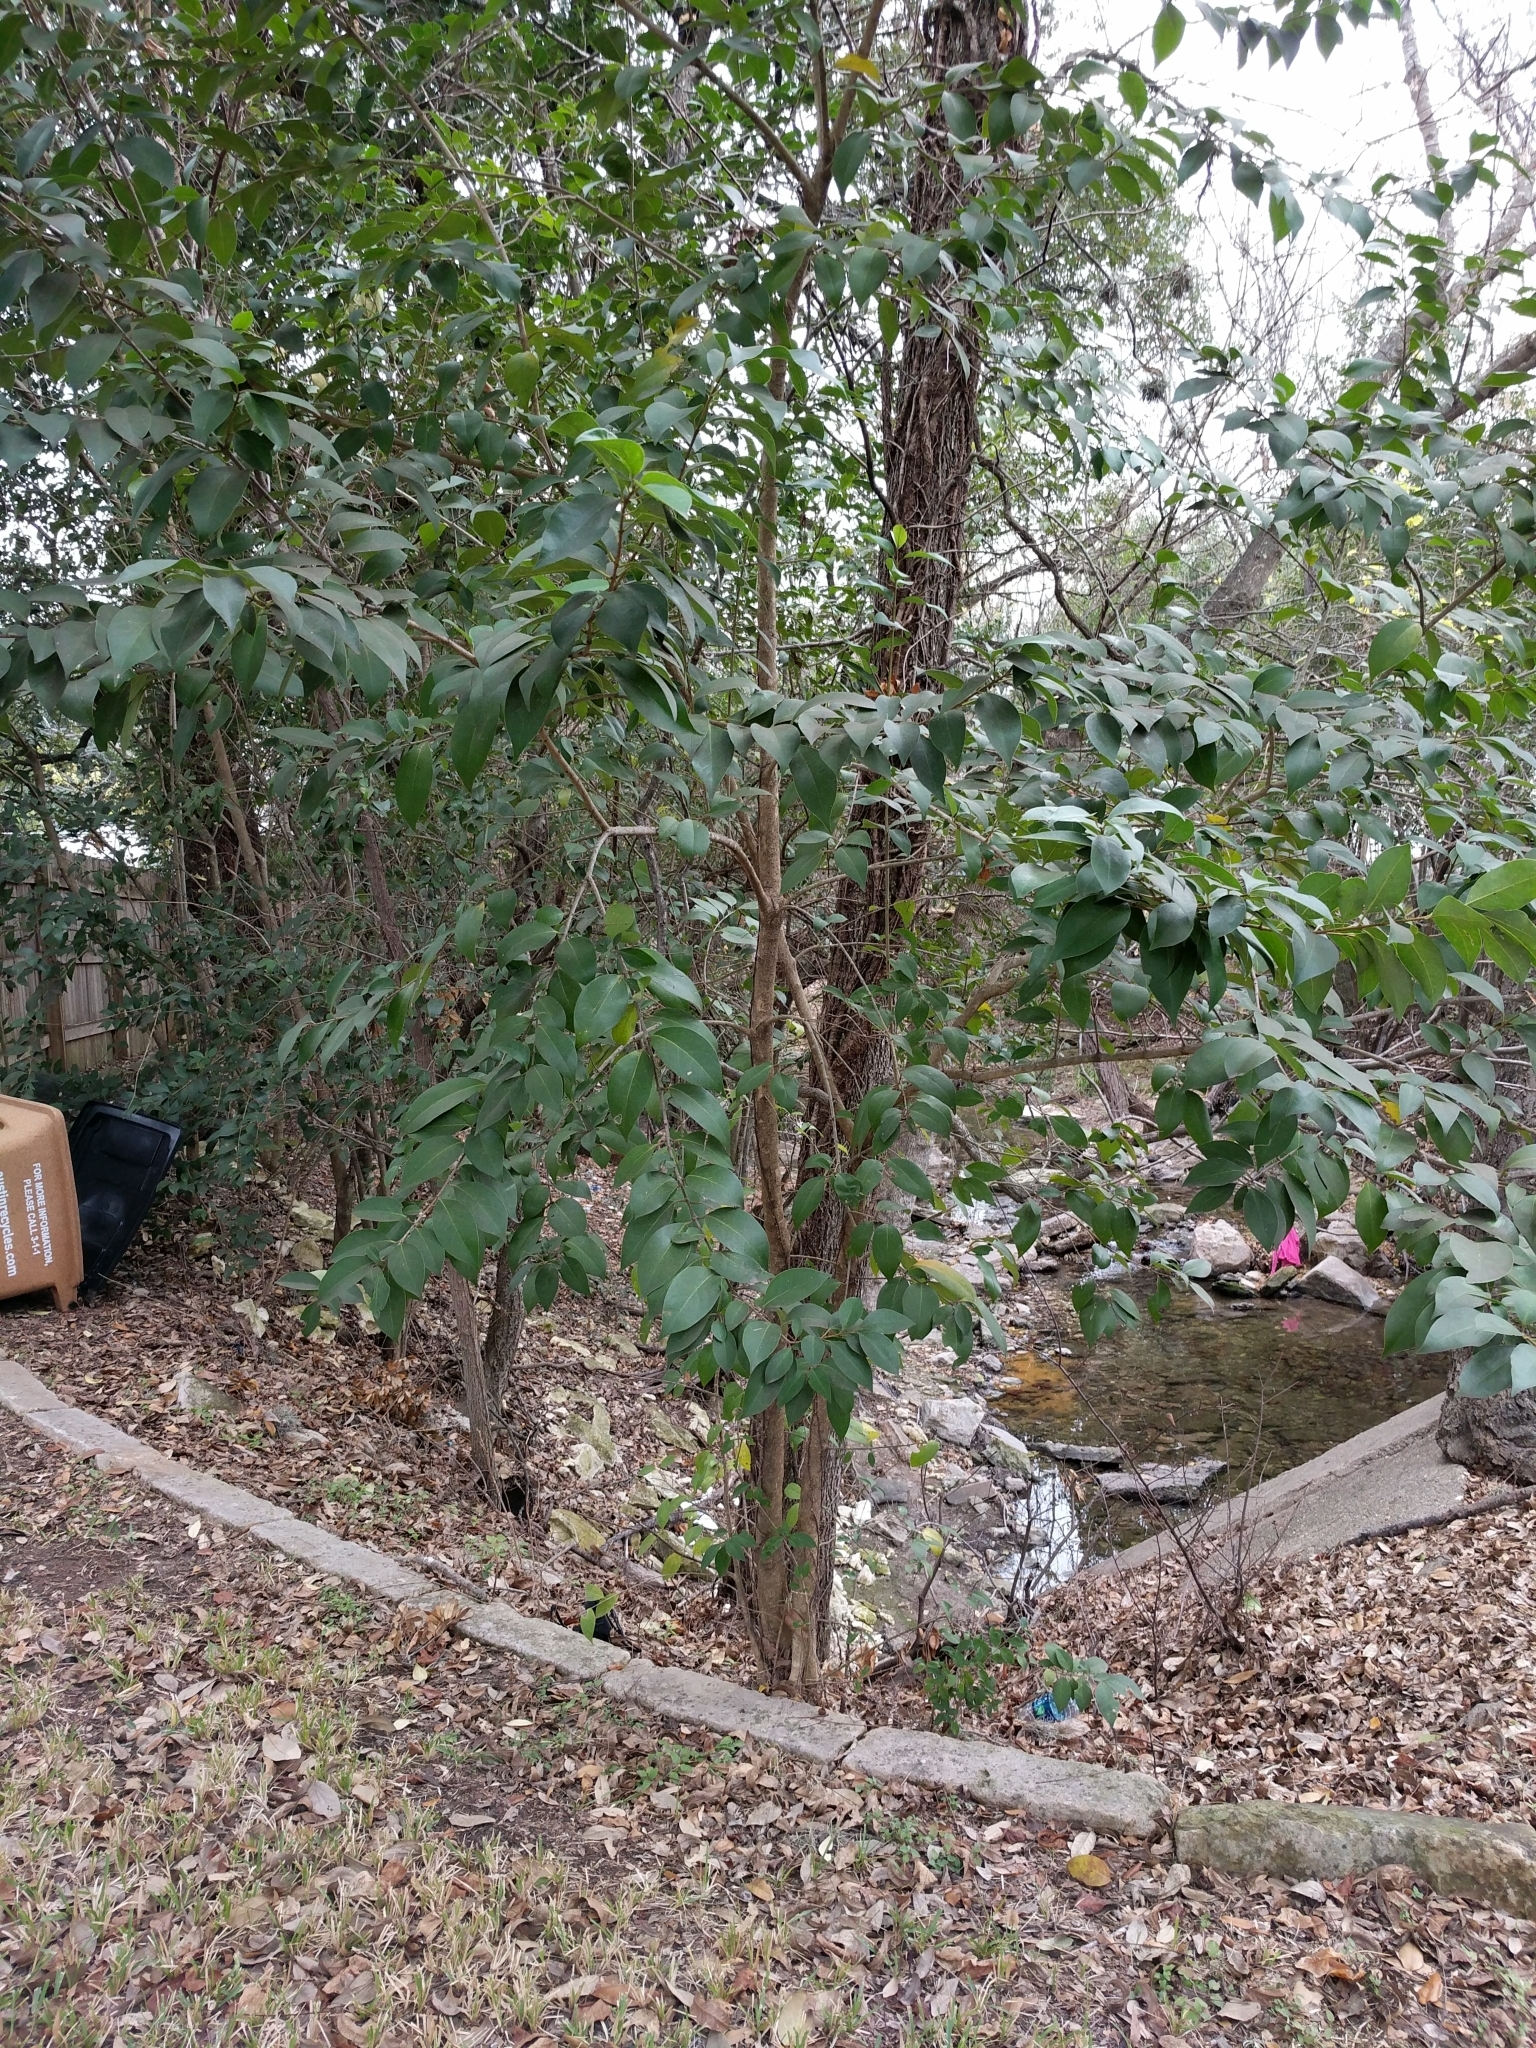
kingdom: Plantae
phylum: Tracheophyta
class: Magnoliopsida
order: Lamiales
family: Oleaceae
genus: Ligustrum
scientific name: Ligustrum lucidum
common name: Glossy privet
